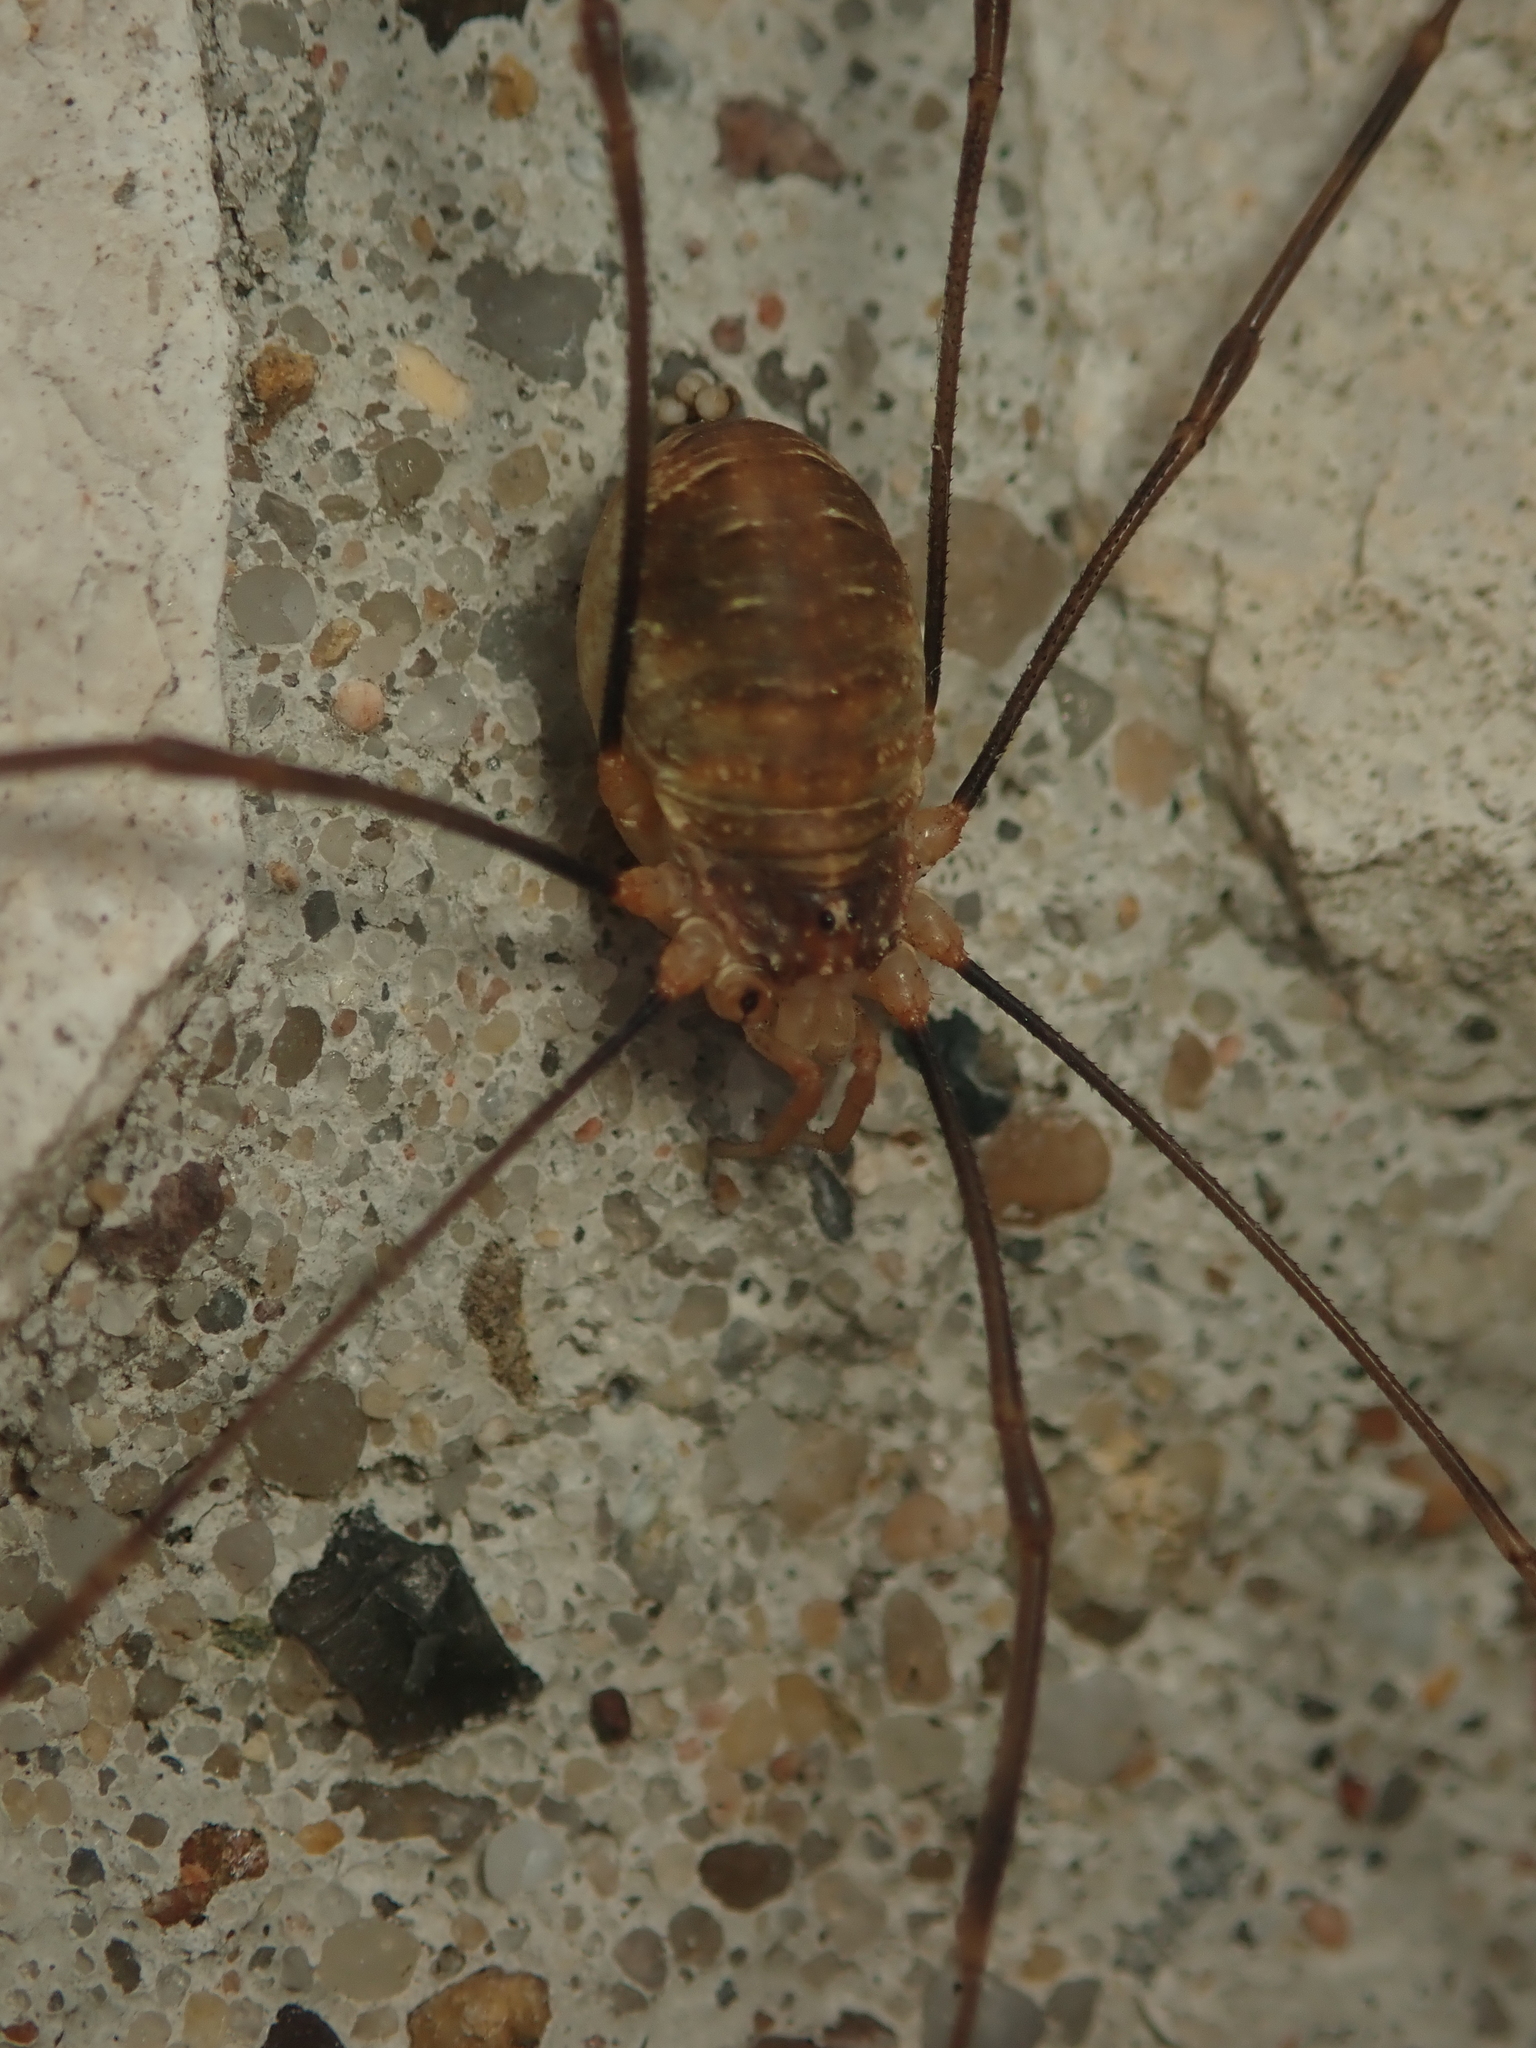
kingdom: Animalia
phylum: Arthropoda
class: Arachnida
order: Opiliones
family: Phalangiidae
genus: Opilio
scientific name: Opilio canestrinii
